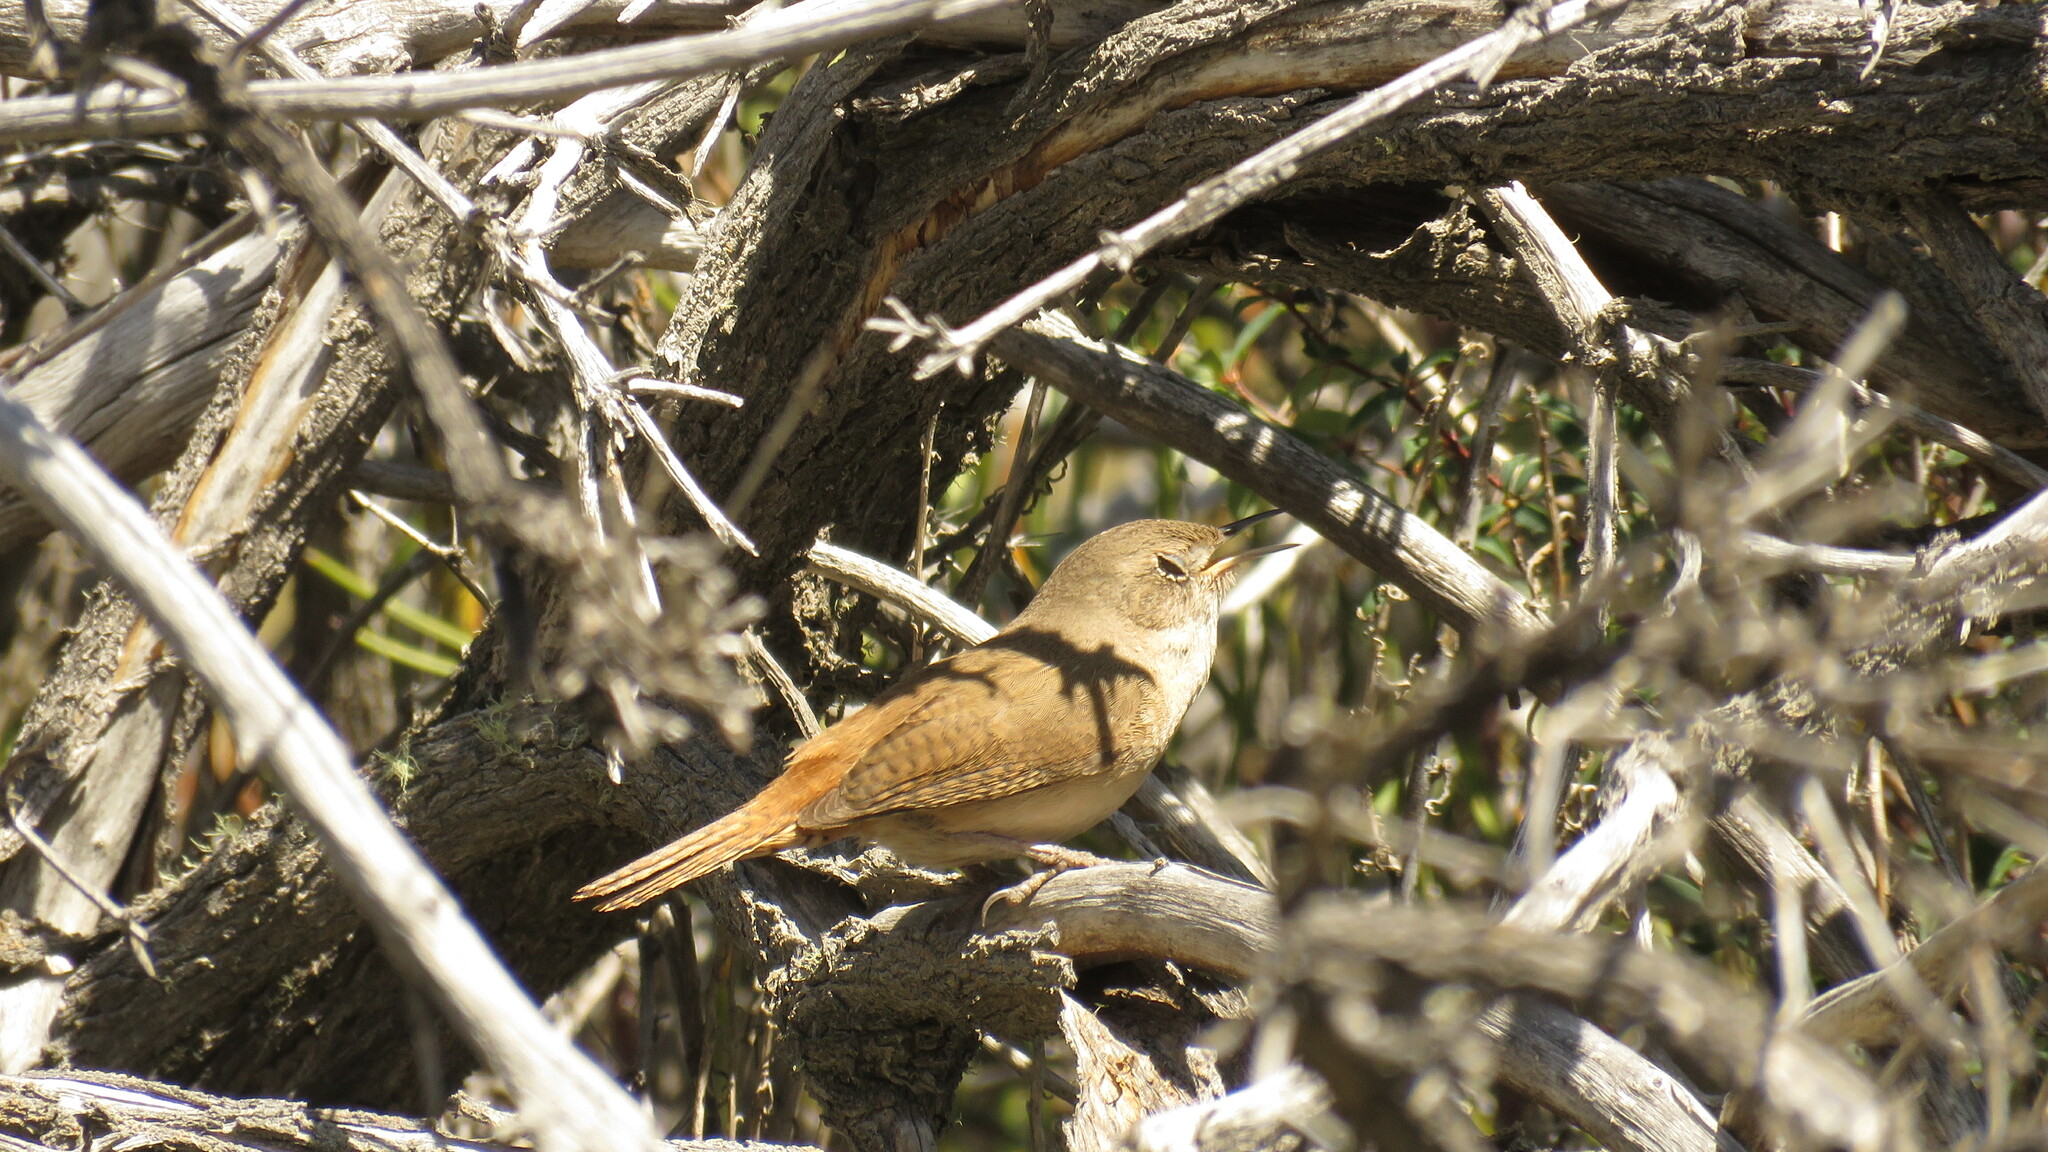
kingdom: Animalia
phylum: Chordata
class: Aves
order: Passeriformes
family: Troglodytidae
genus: Troglodytes
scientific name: Troglodytes aedon
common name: House wren
